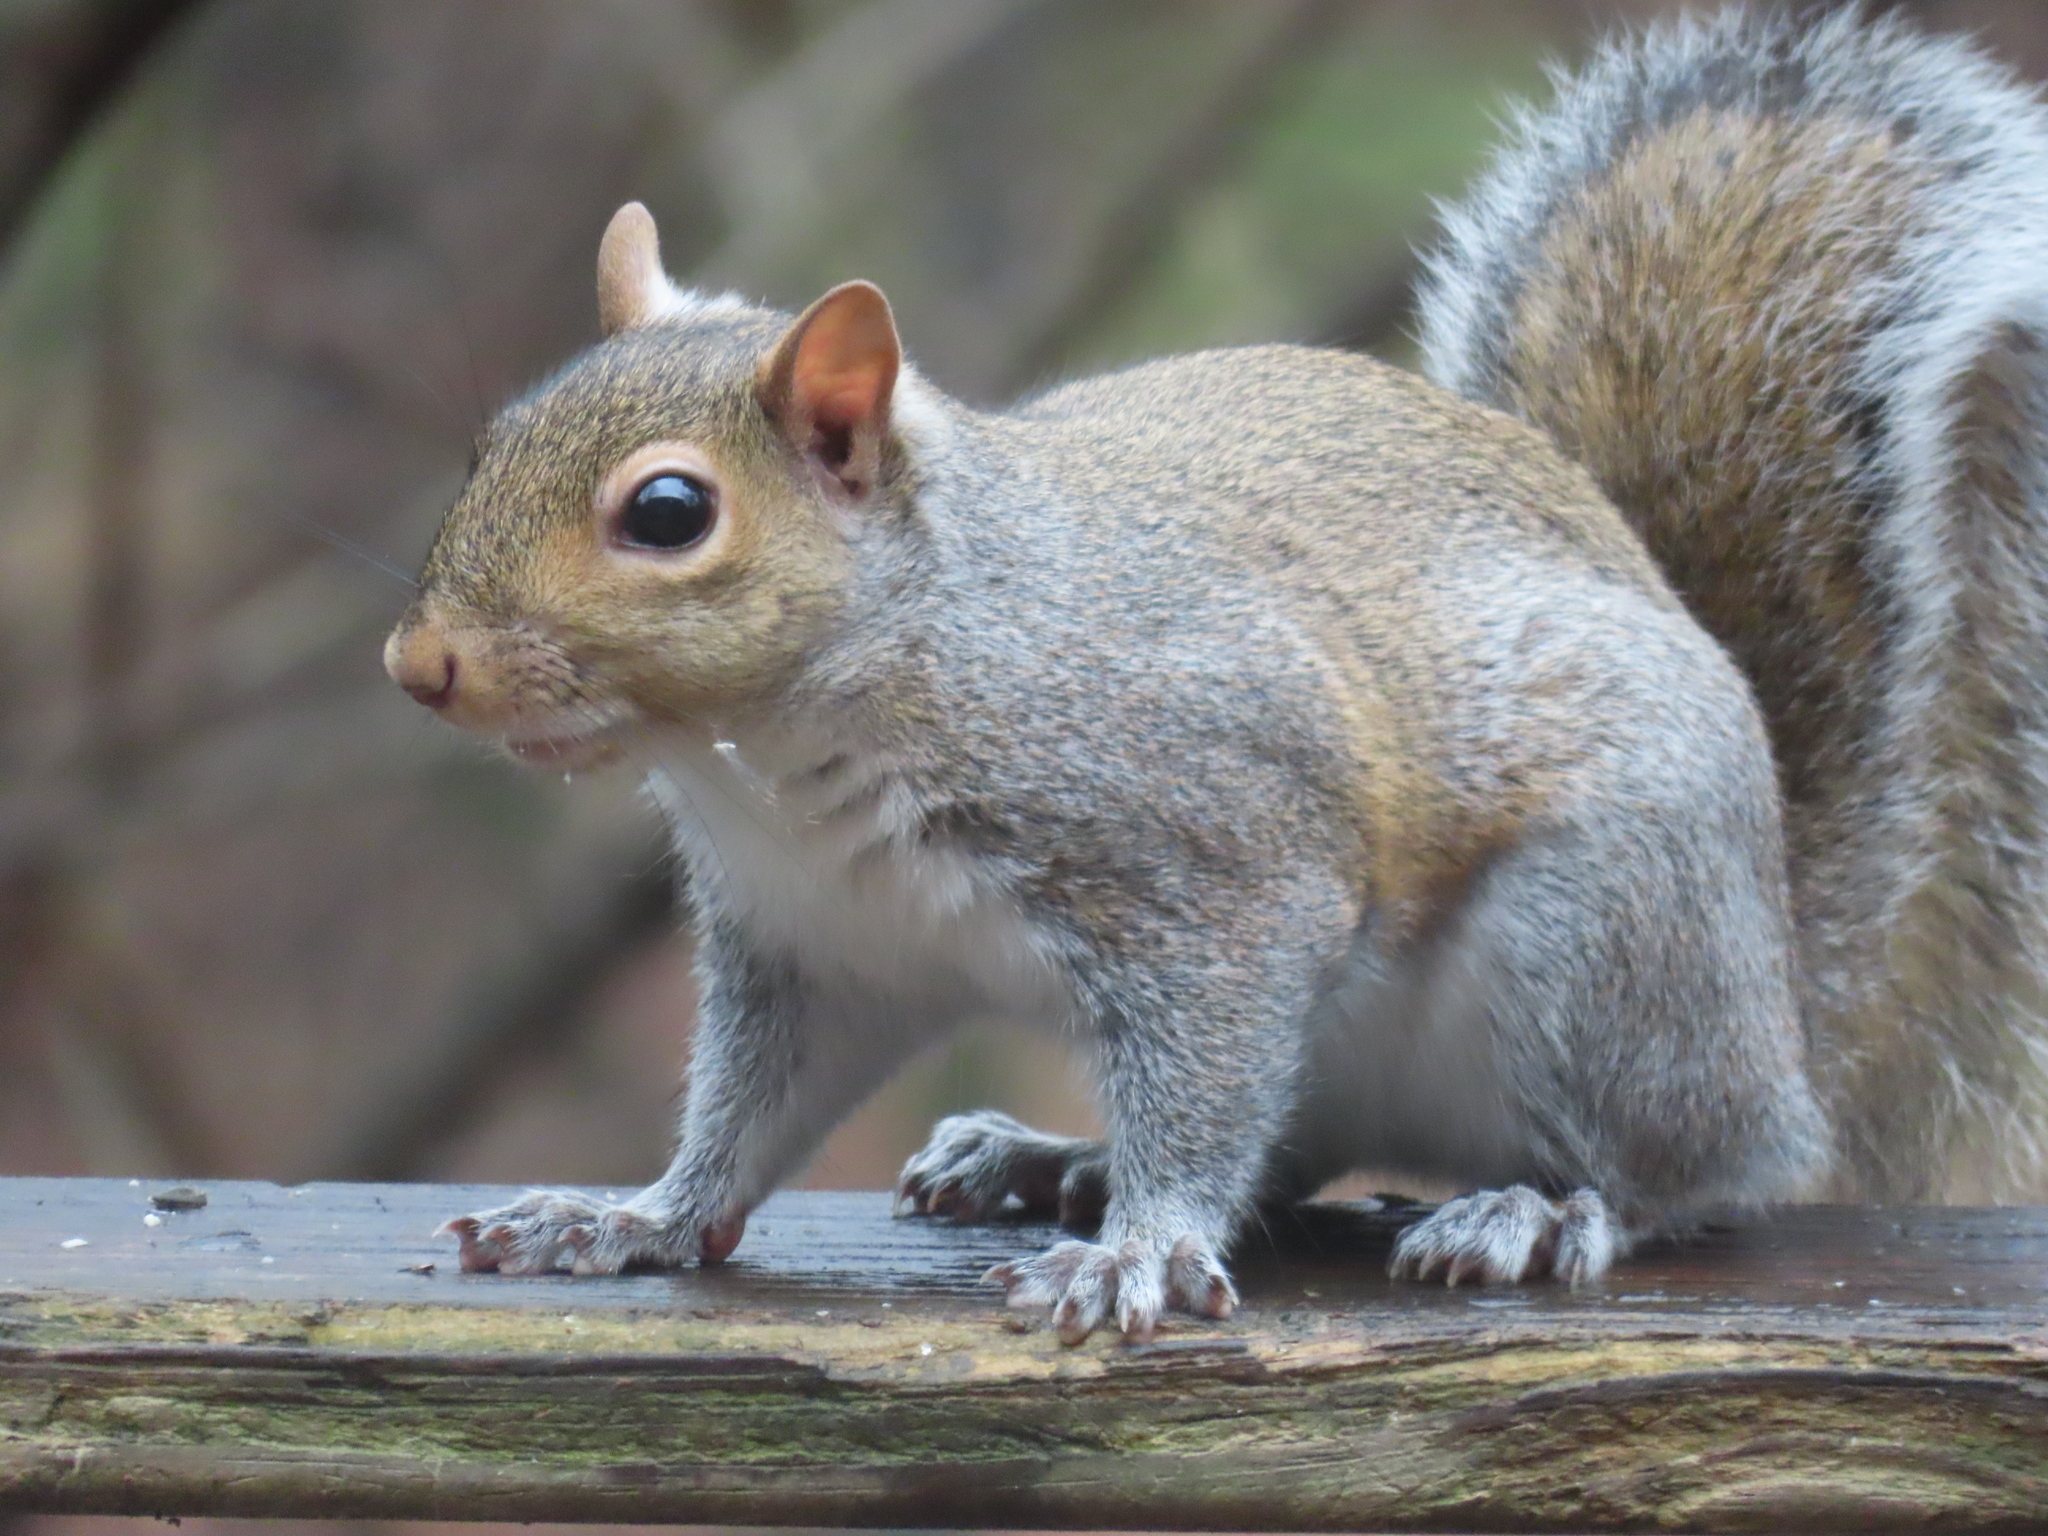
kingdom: Animalia
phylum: Chordata
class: Mammalia
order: Rodentia
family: Sciuridae
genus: Sciurus
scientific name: Sciurus carolinensis
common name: Eastern gray squirrel
